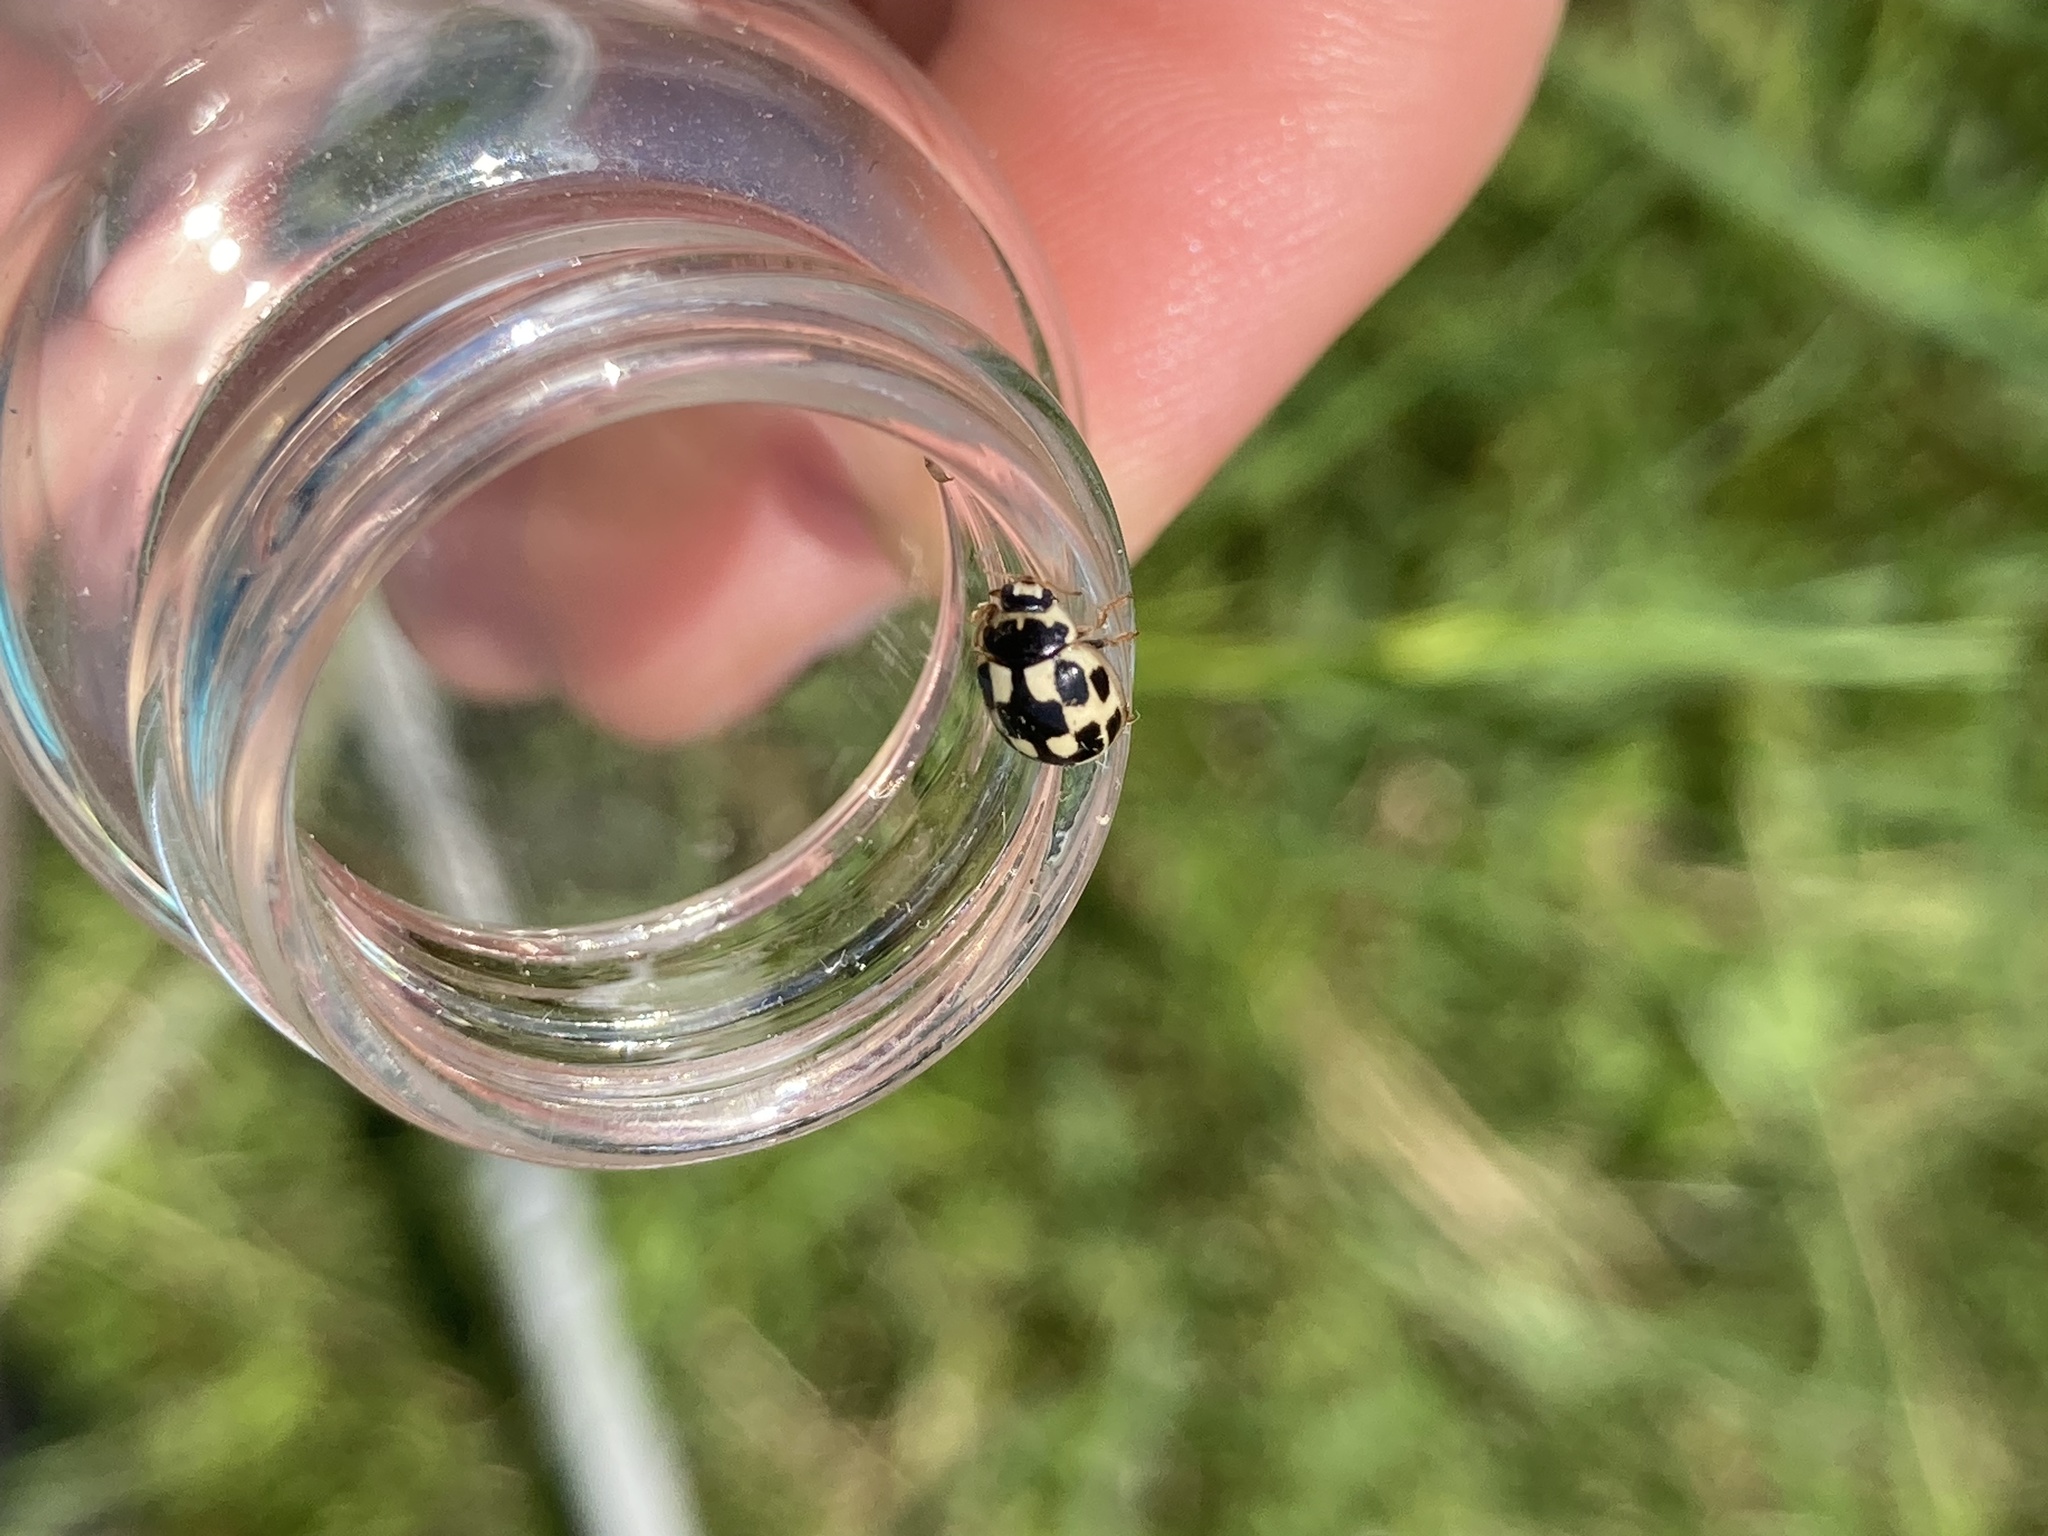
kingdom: Animalia
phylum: Arthropoda
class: Insecta
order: Coleoptera
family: Coccinellidae
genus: Propylaea
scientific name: Propylaea quatuordecimpunctata
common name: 14-spotted ladybird beetle
